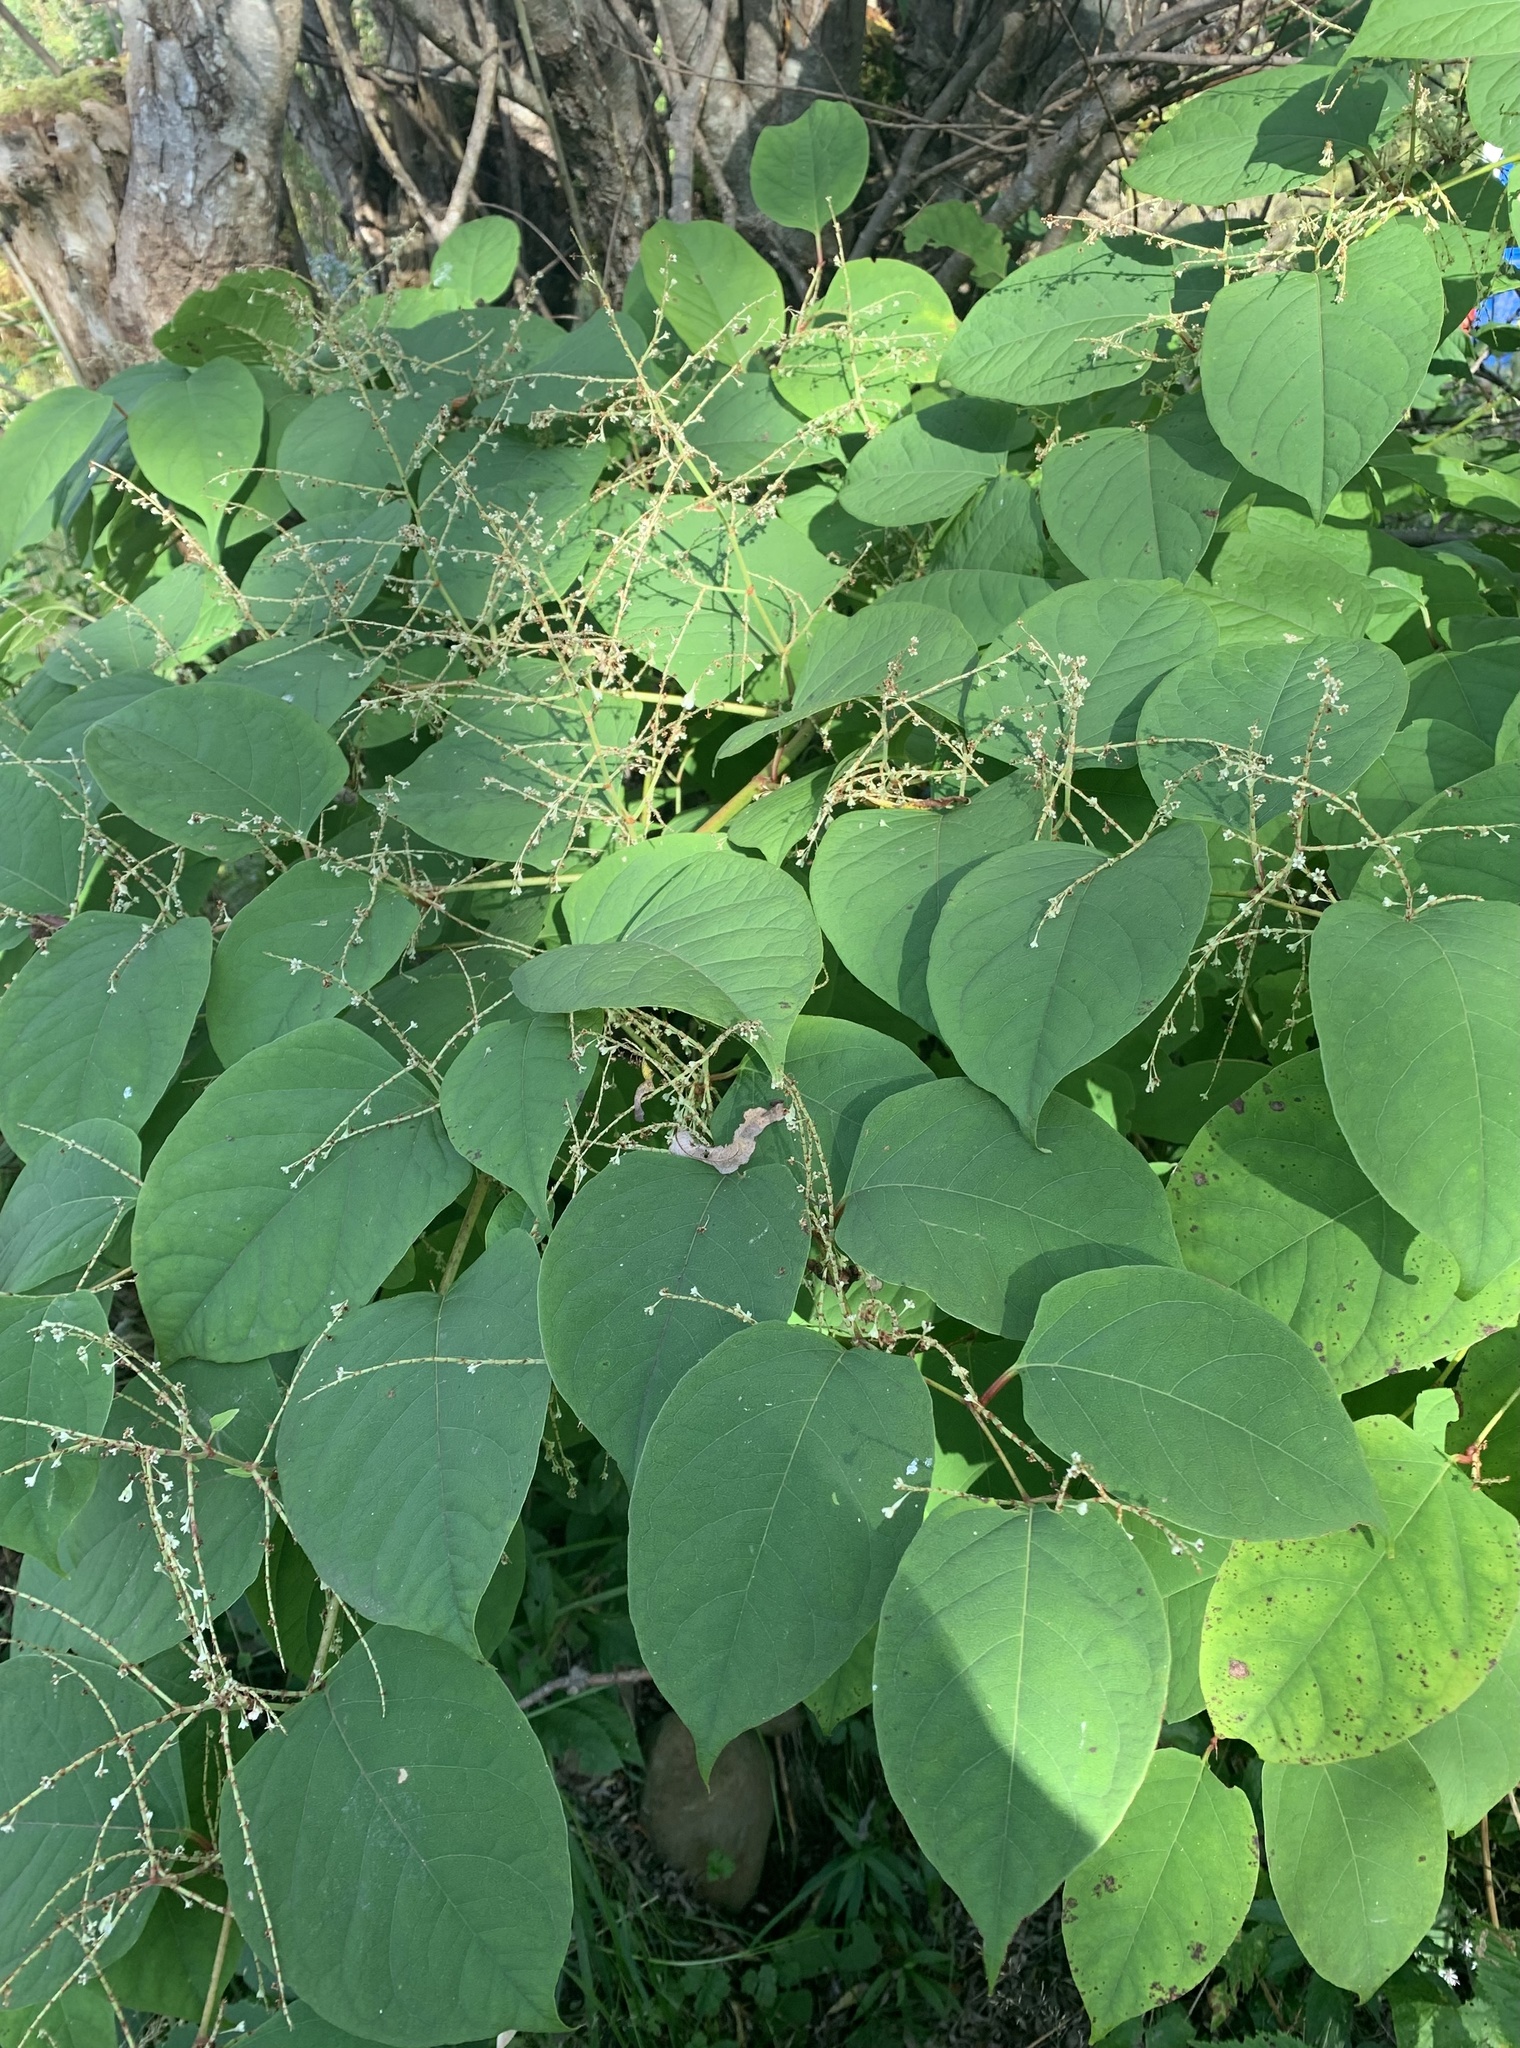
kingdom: Plantae
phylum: Tracheophyta
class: Magnoliopsida
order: Caryophyllales
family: Polygonaceae
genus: Reynoutria
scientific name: Reynoutria japonica
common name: Japanese knotweed
